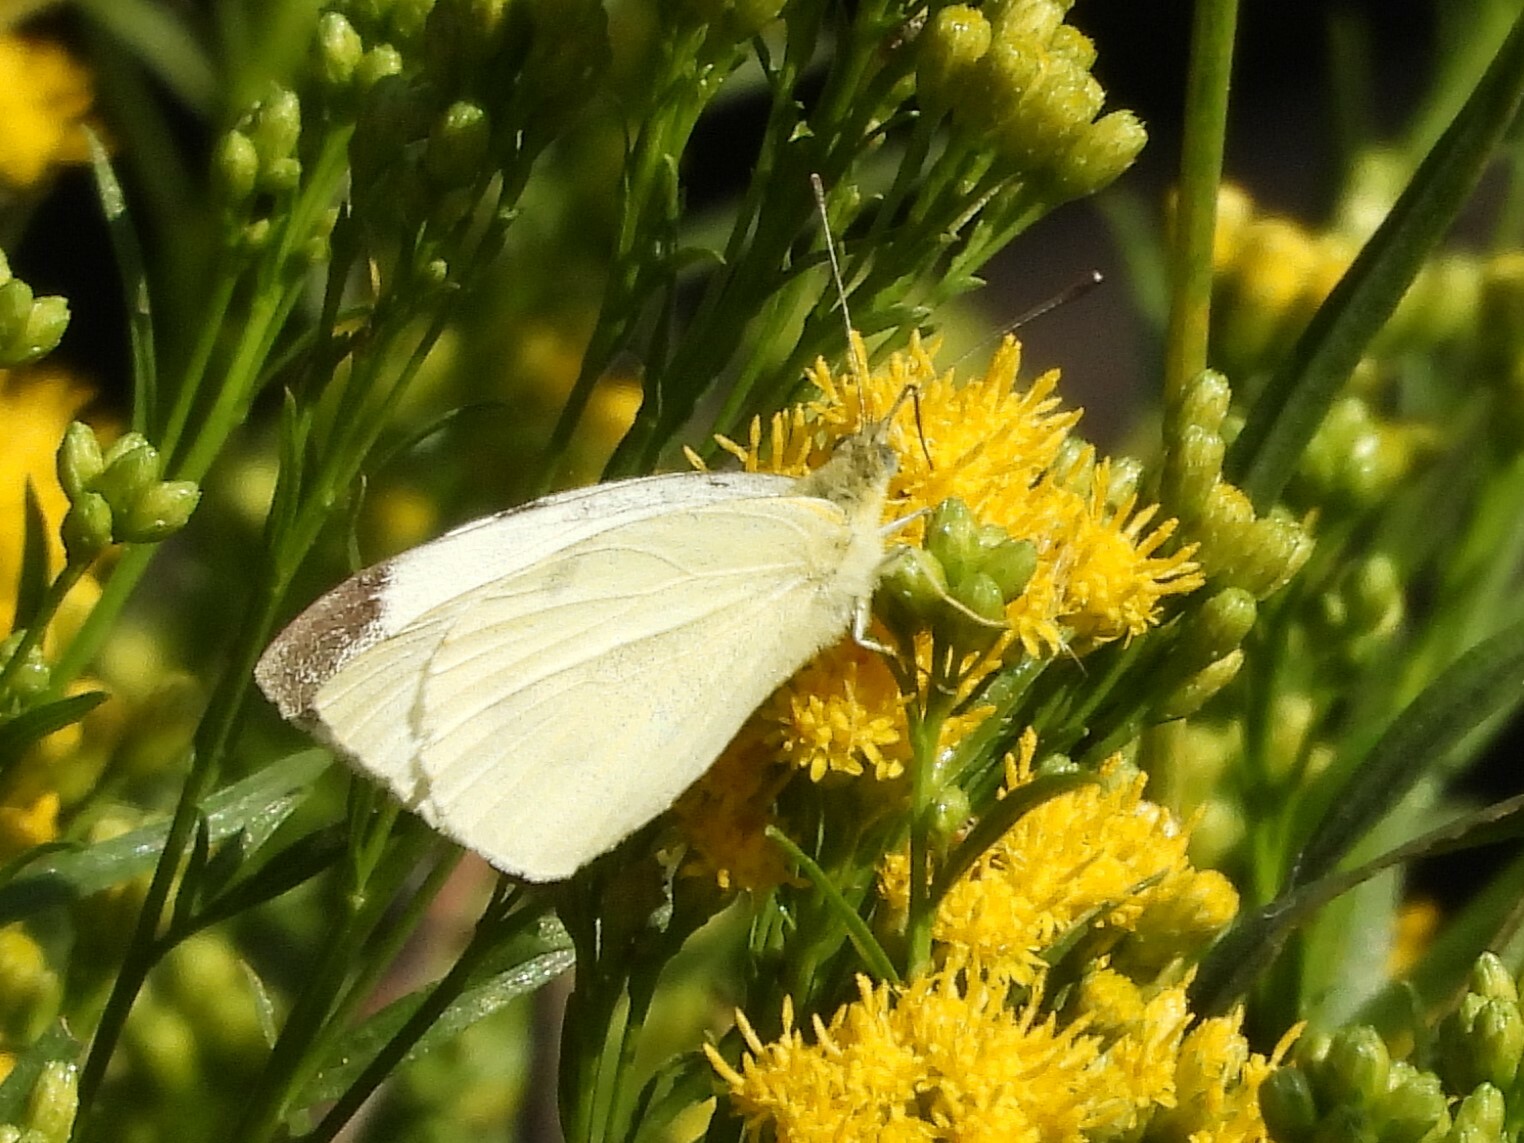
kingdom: Animalia
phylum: Arthropoda
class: Insecta
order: Lepidoptera
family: Pieridae
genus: Pieris
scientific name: Pieris rapae
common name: Small white
